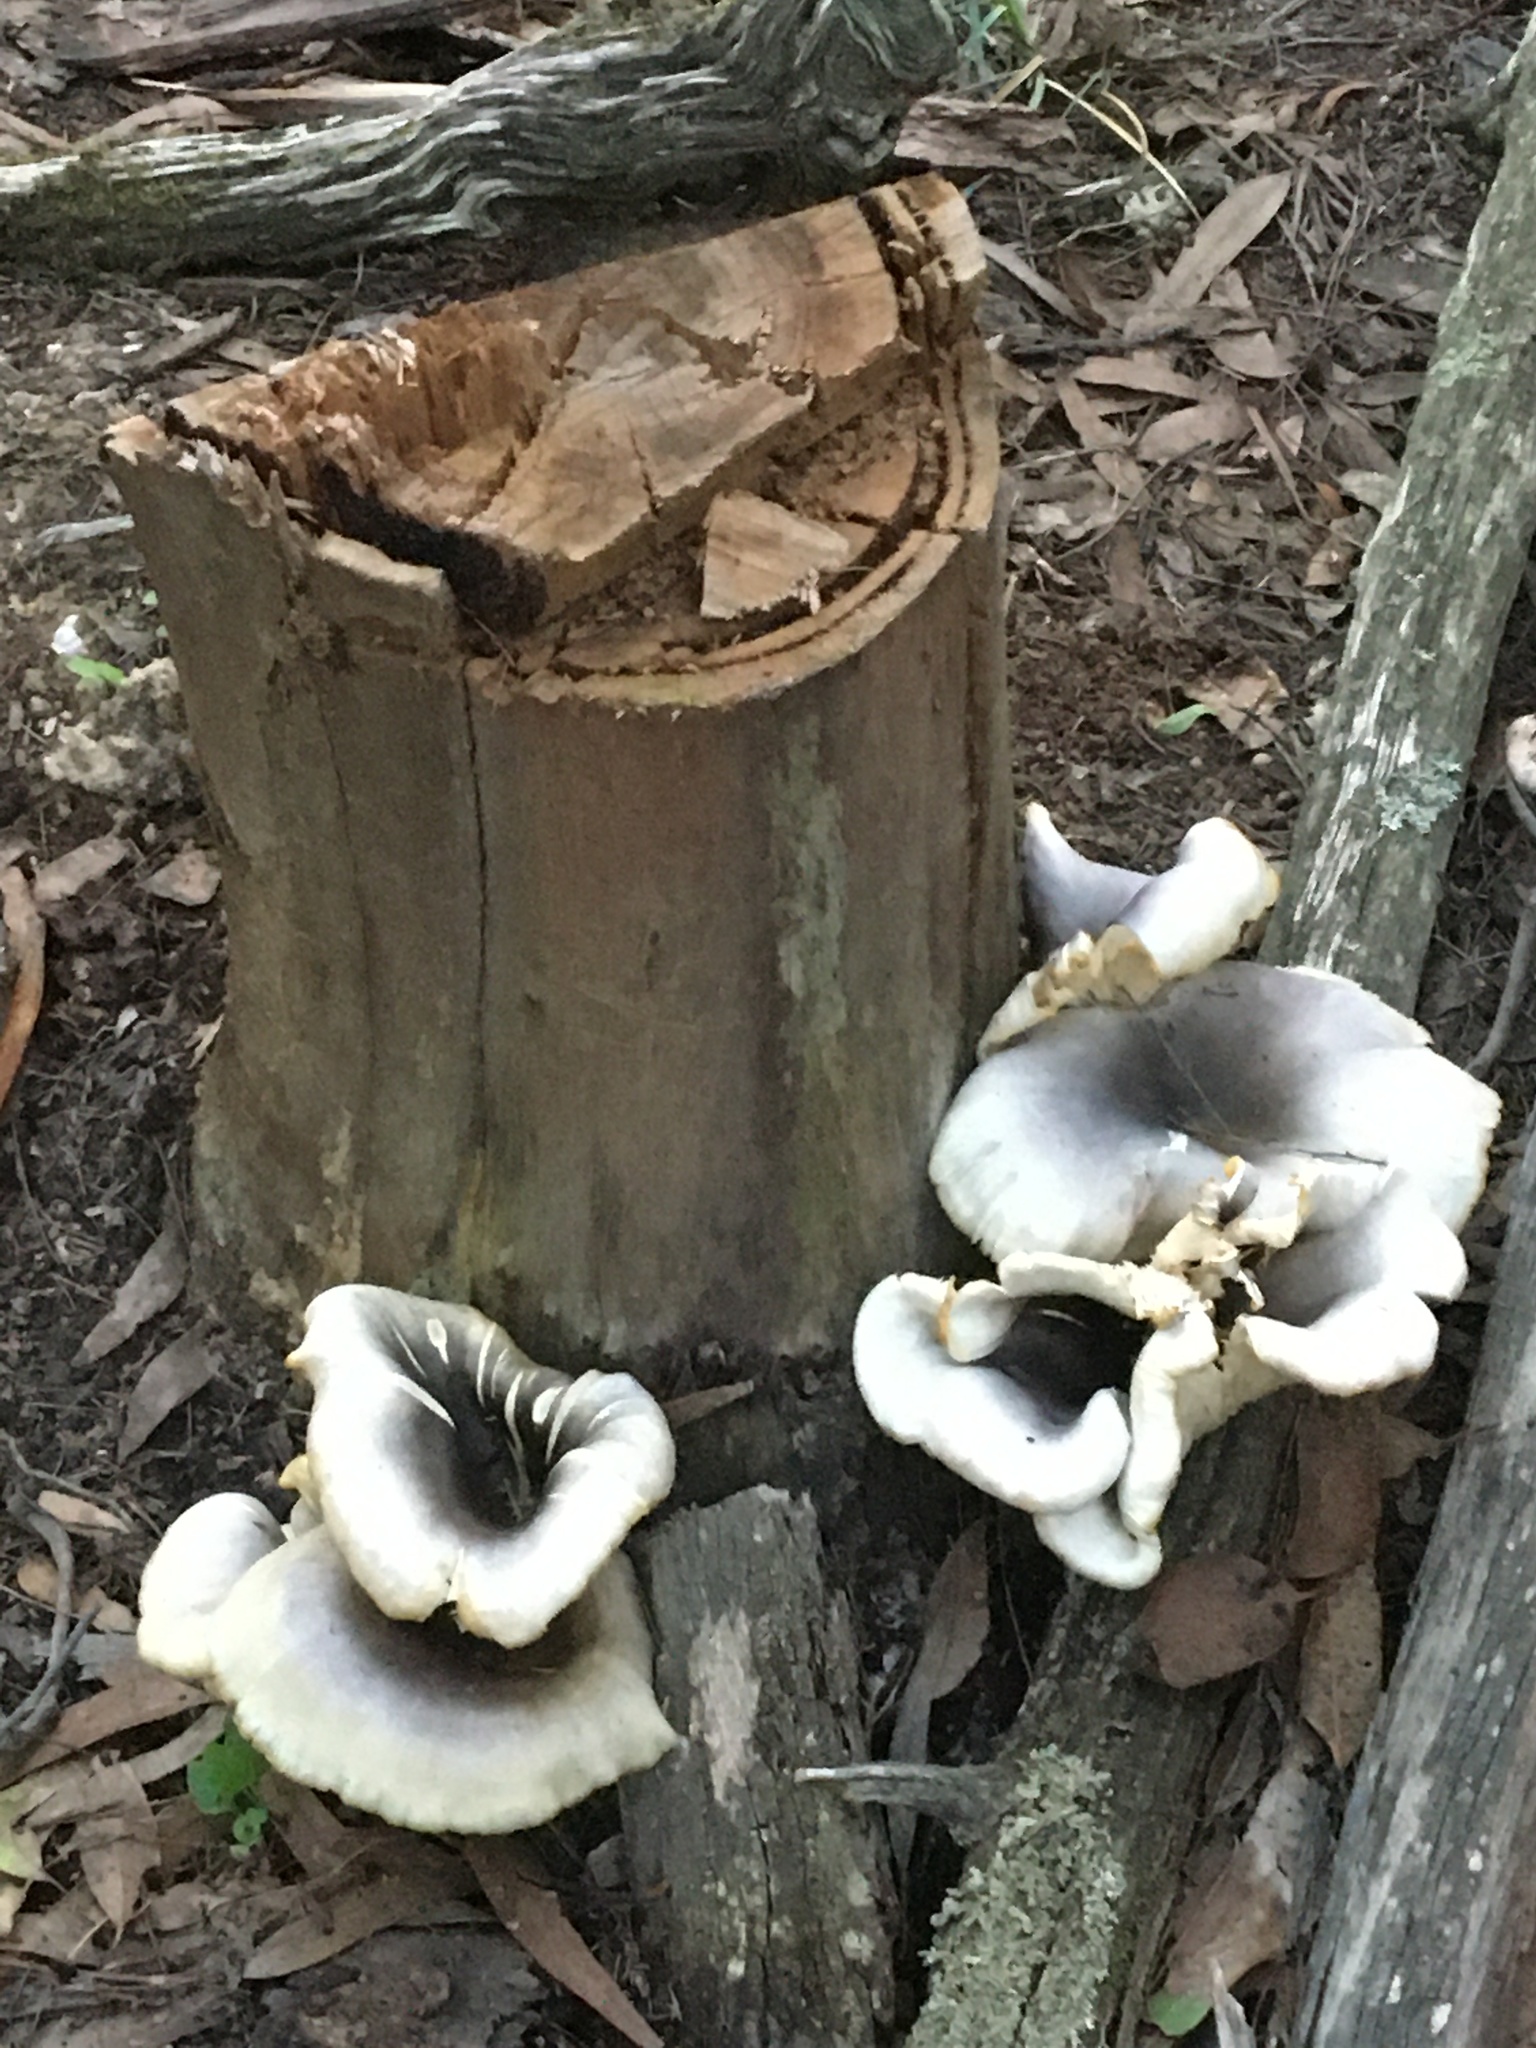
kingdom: Fungi
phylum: Basidiomycota
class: Agaricomycetes
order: Agaricales
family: Omphalotaceae
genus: Omphalotus
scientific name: Omphalotus nidiformis
